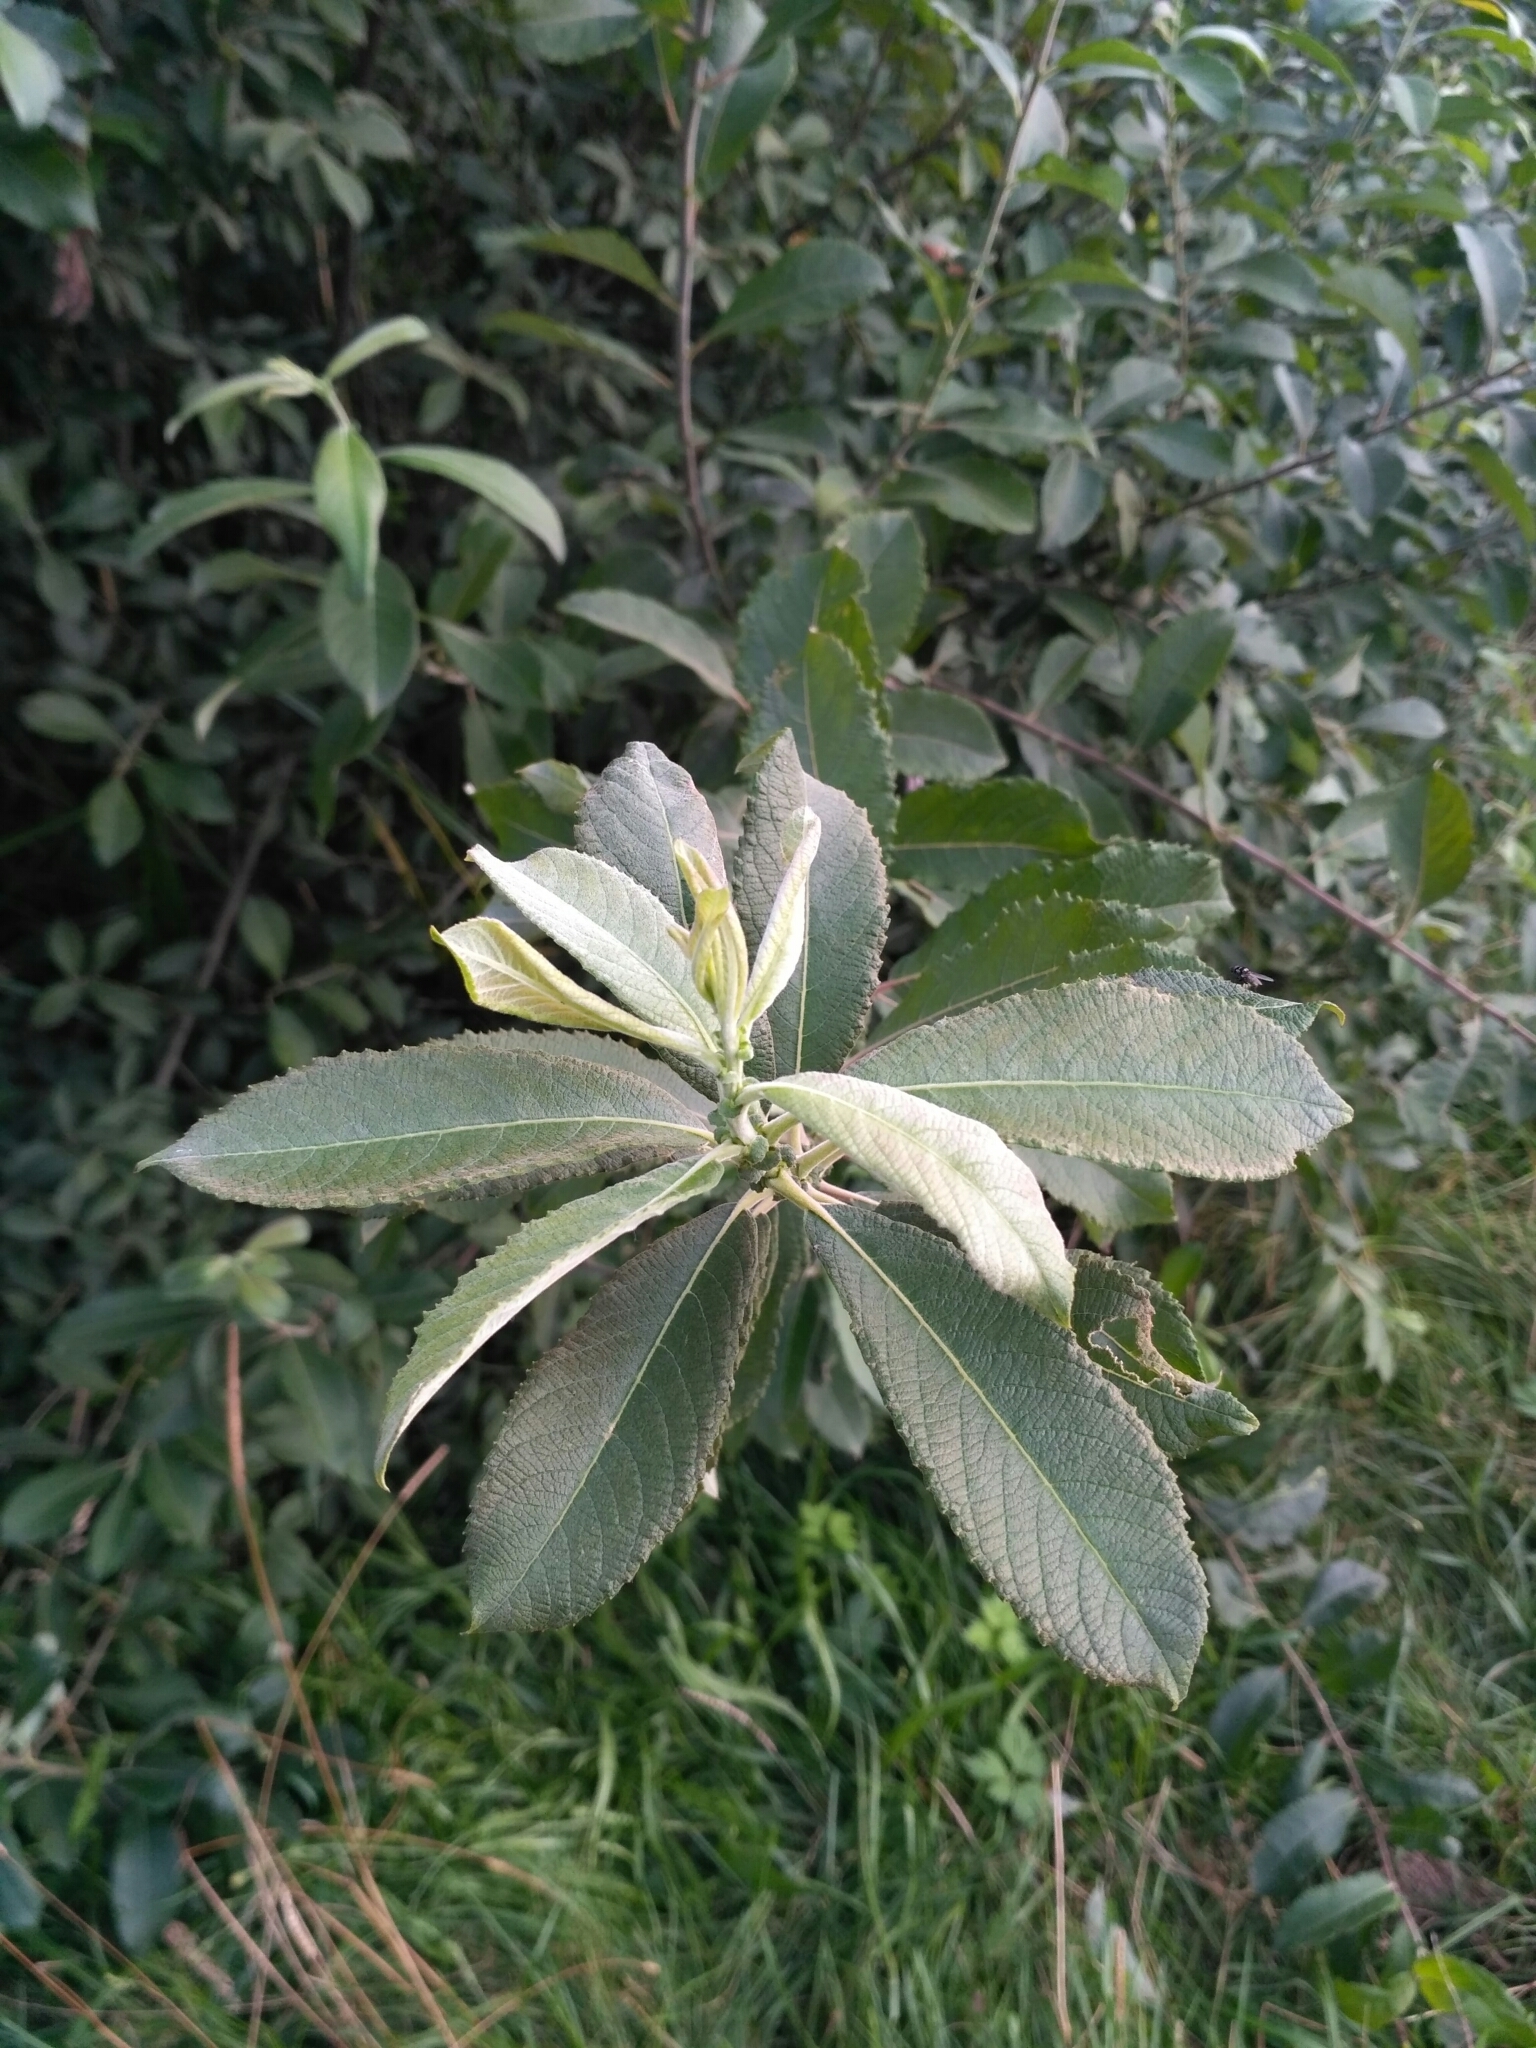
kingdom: Plantae
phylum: Tracheophyta
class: Magnoliopsida
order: Malpighiales
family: Salicaceae
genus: Salix
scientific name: Salix cinerea
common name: Common sallow
